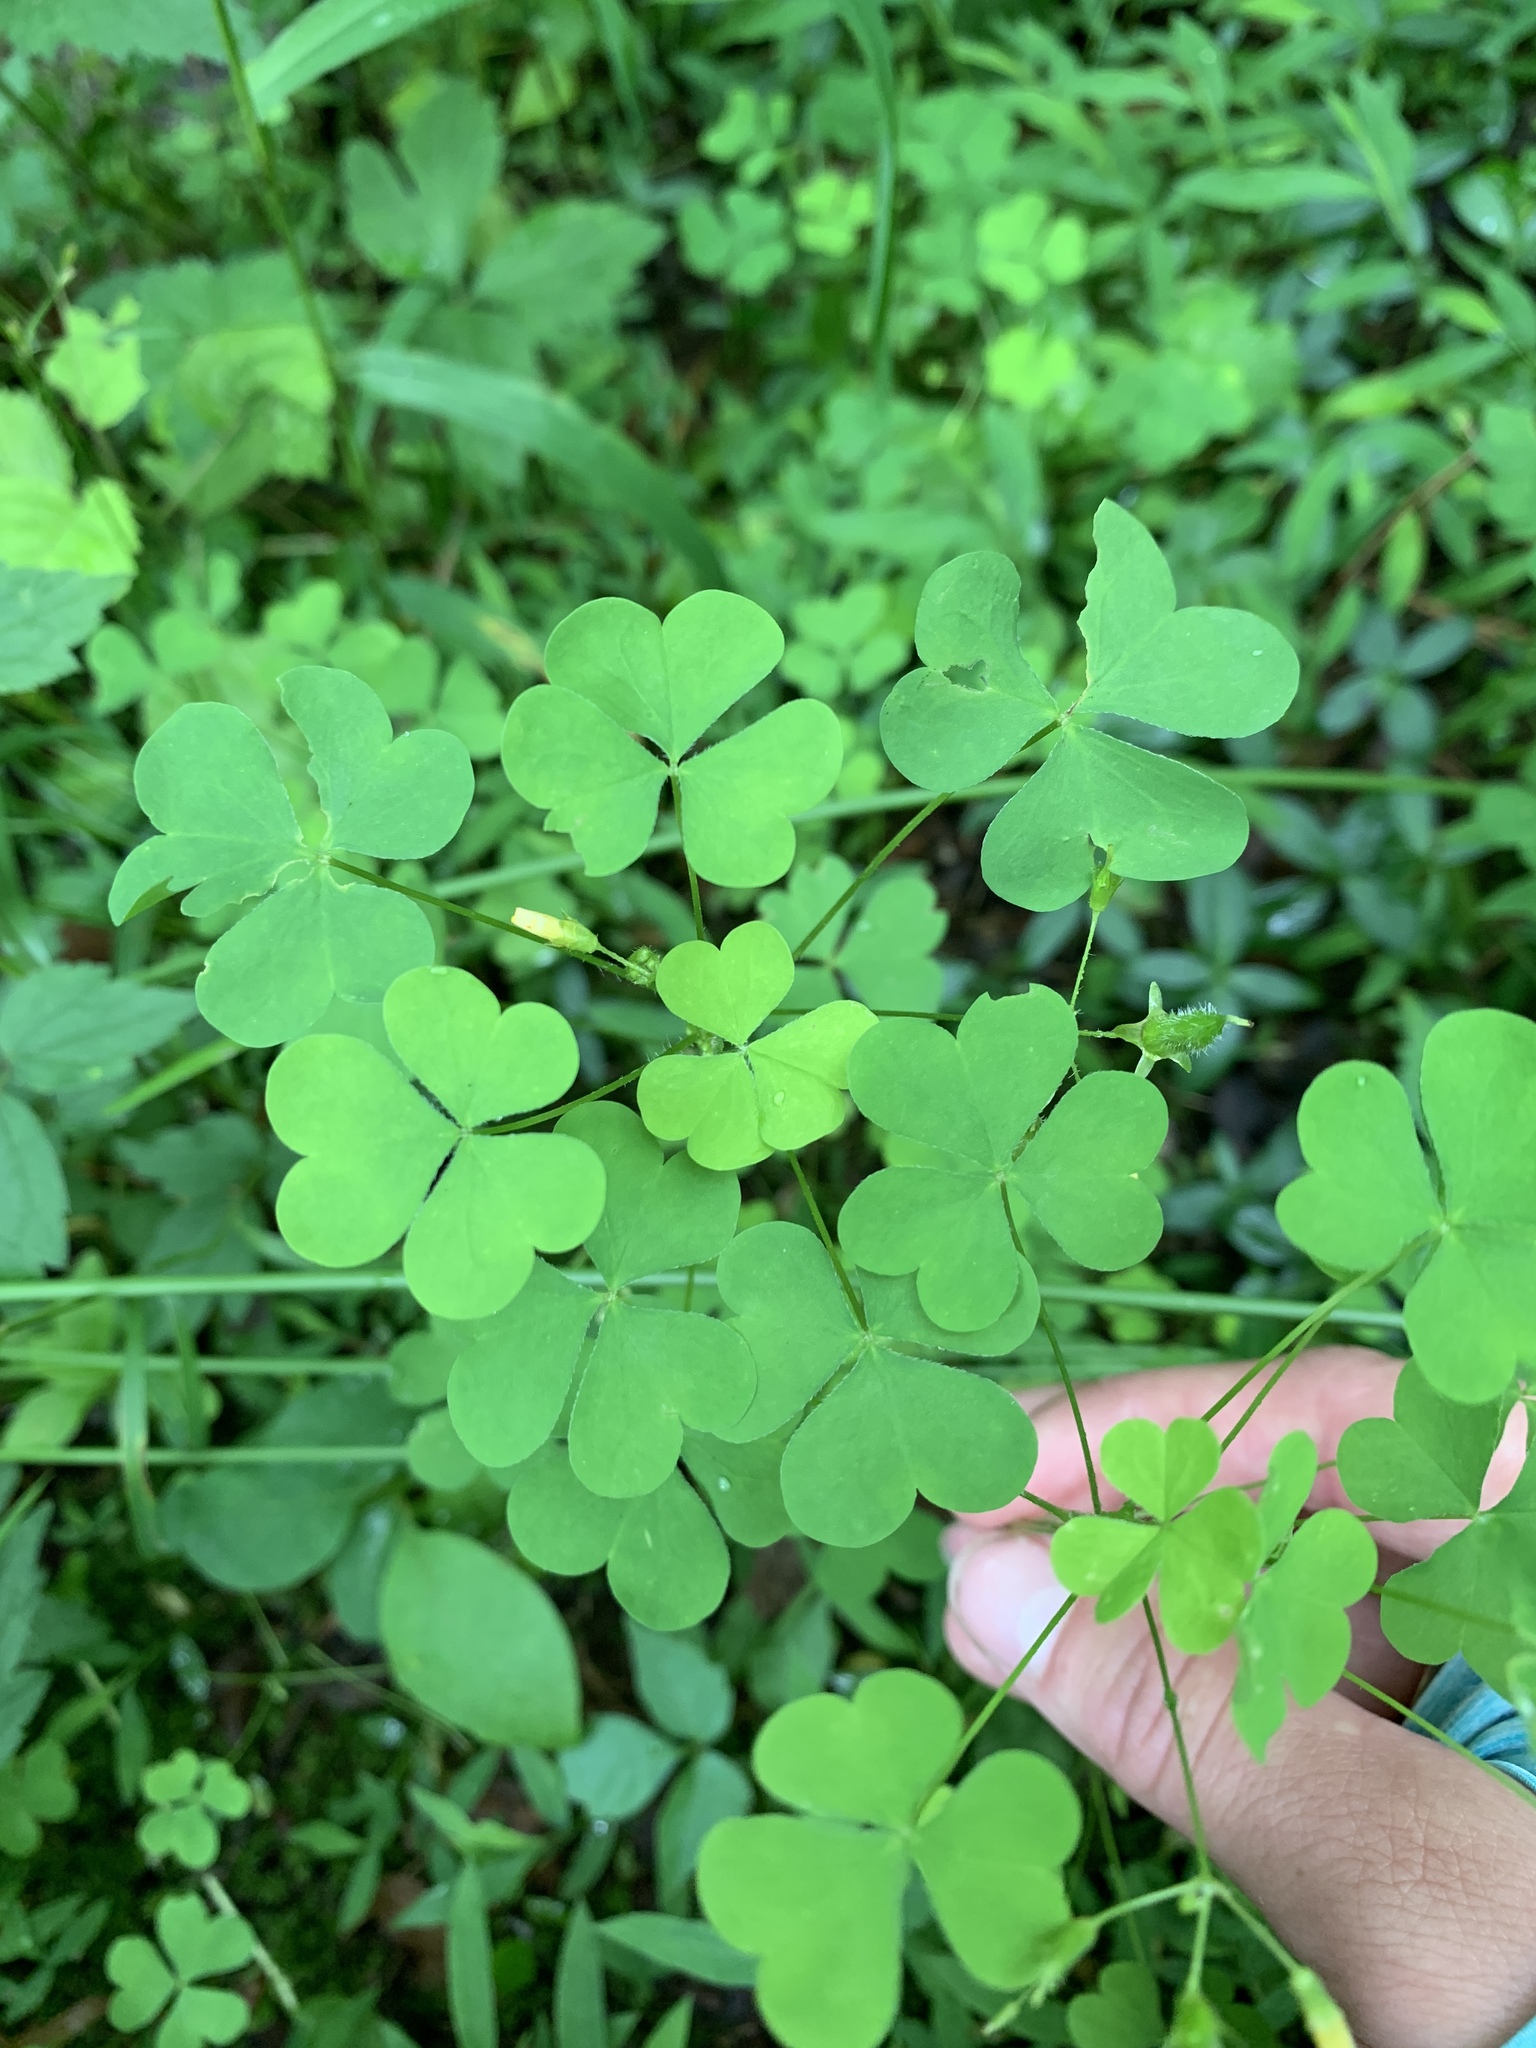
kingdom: Plantae
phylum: Tracheophyta
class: Magnoliopsida
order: Oxalidales
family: Oxalidaceae
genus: Oxalis
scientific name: Oxalis stricta
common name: Upright yellow-sorrel
